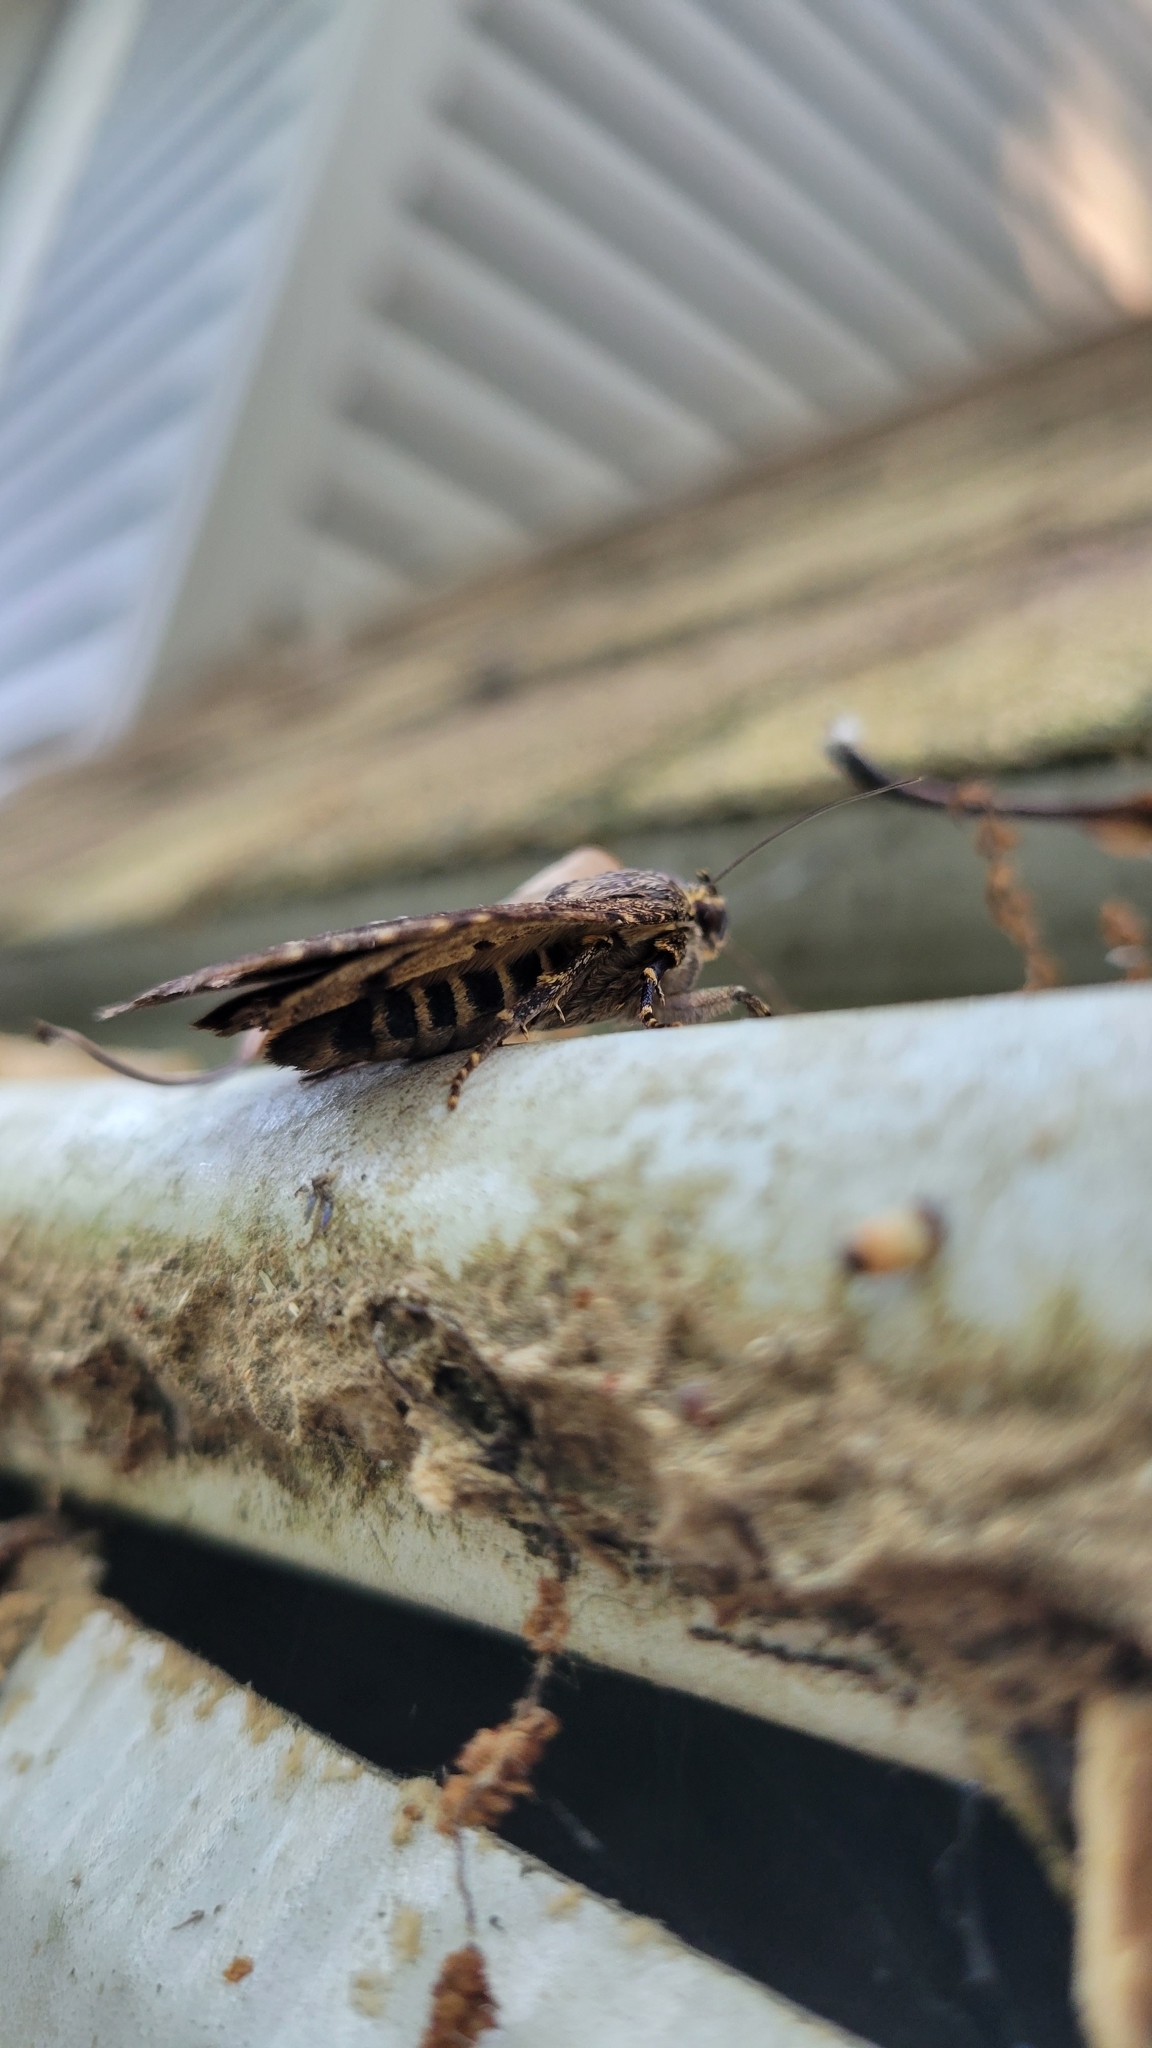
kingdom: Animalia
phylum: Arthropoda
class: Insecta
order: Lepidoptera
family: Noctuidae
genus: Amphipyra
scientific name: Amphipyra pyramidoides
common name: American copper underwing
